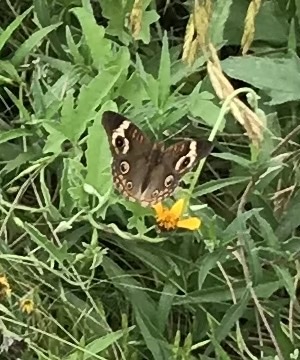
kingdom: Animalia
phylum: Arthropoda
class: Insecta
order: Lepidoptera
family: Nymphalidae
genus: Junonia
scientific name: Junonia coenia
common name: Common buckeye
